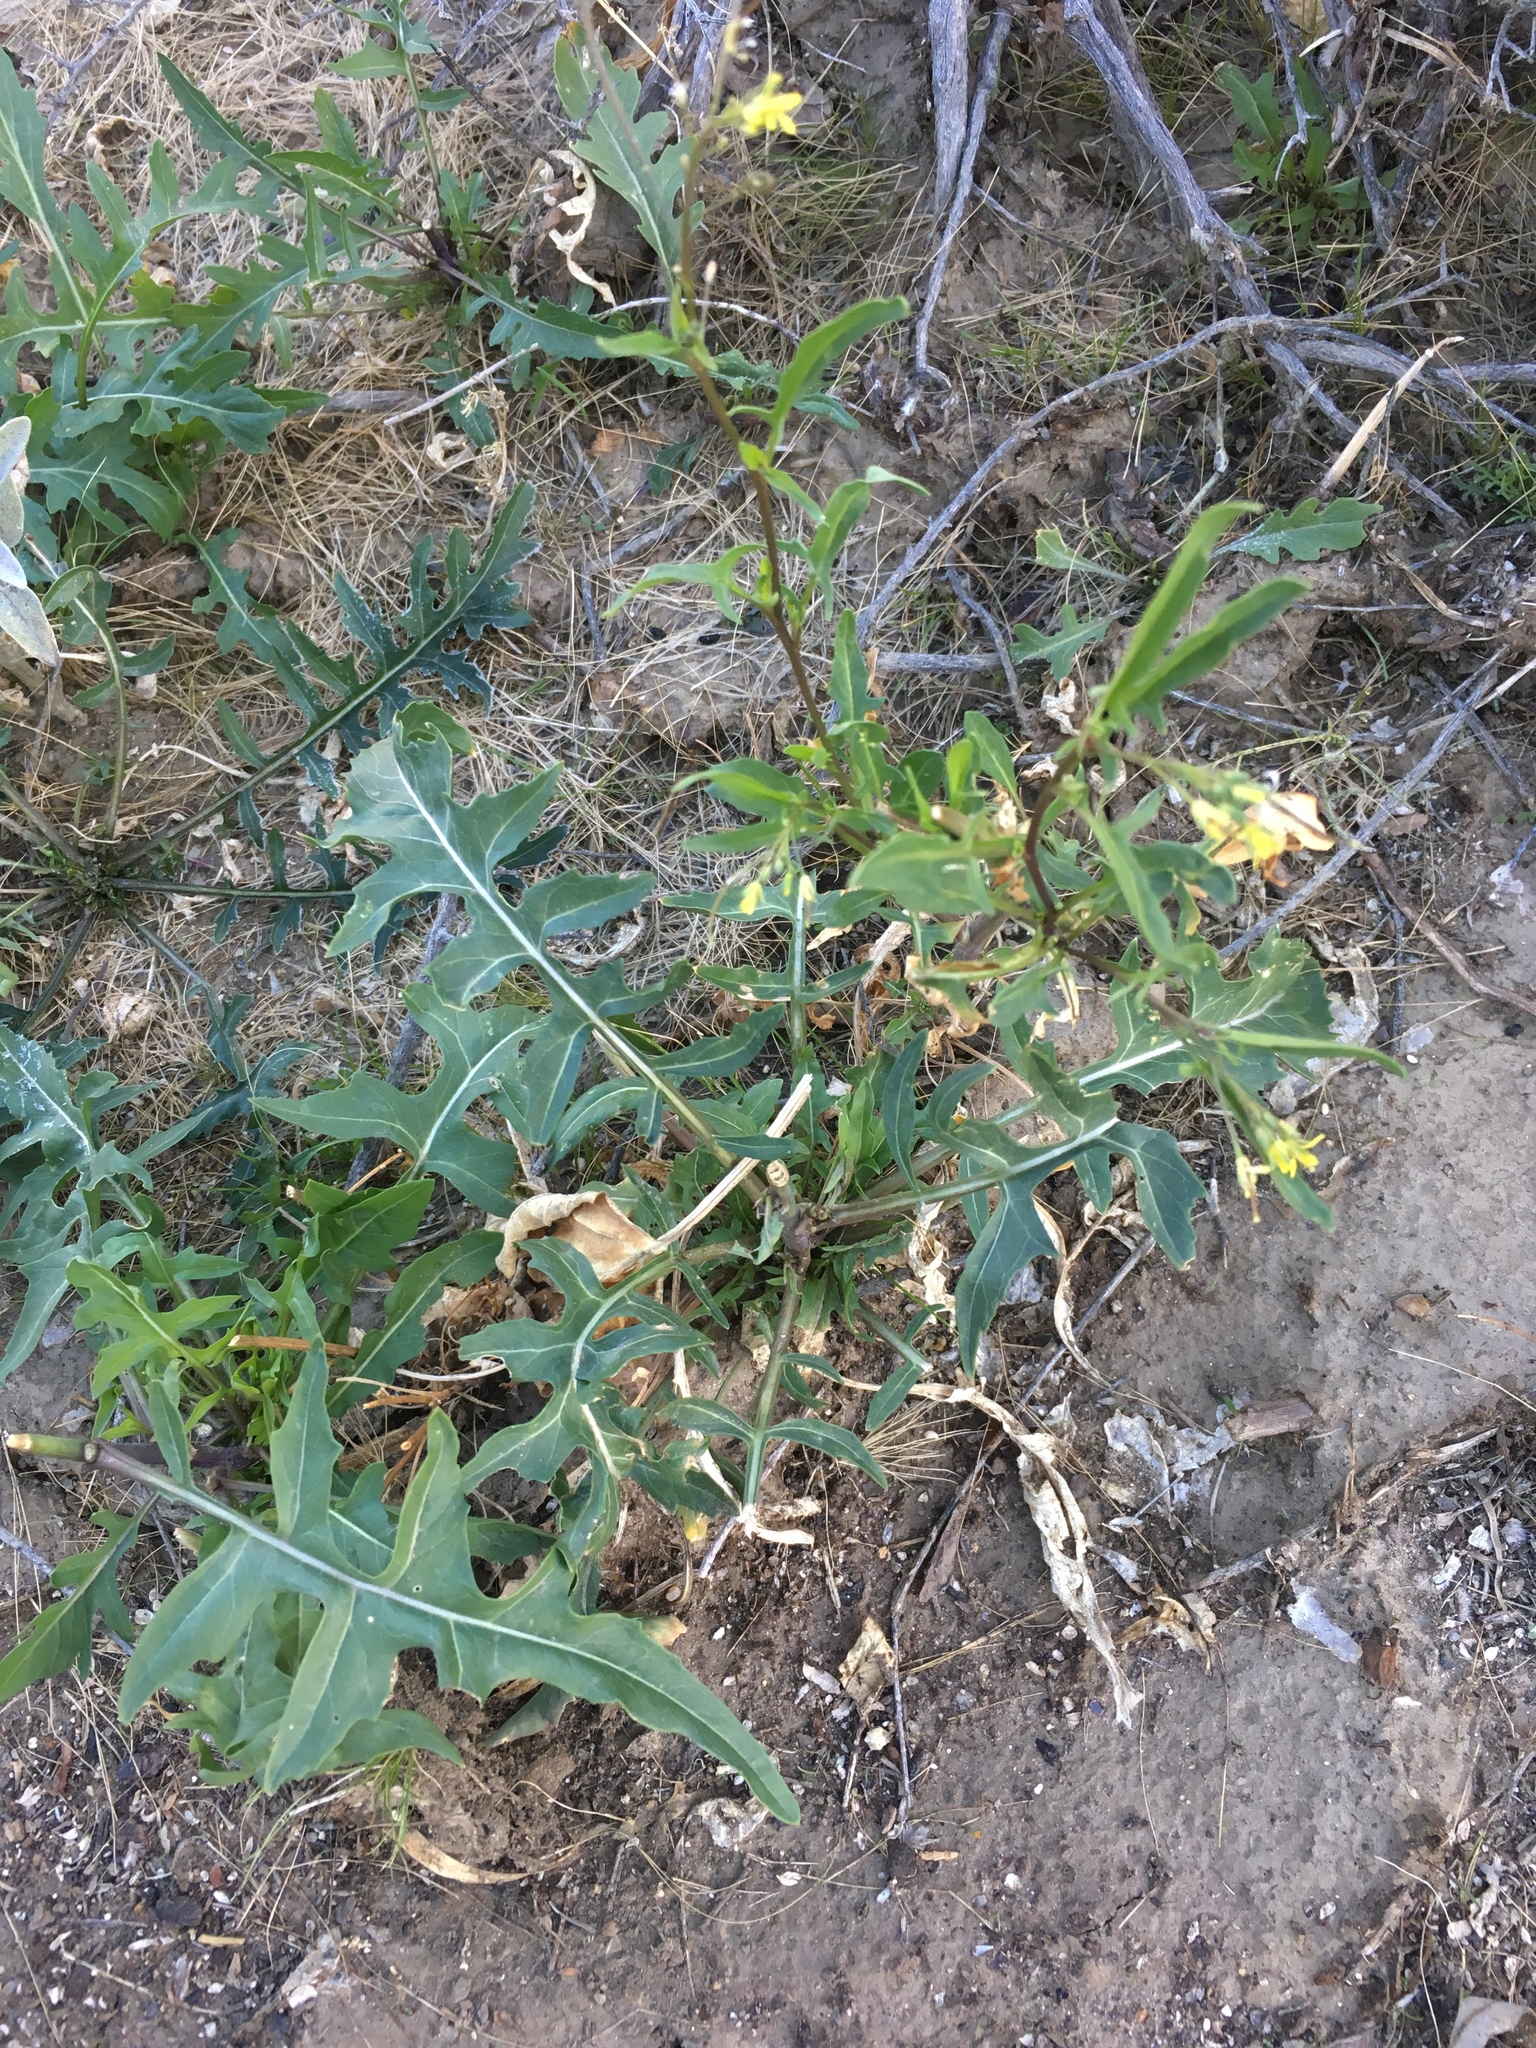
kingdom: Plantae
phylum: Tracheophyta
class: Magnoliopsida
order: Brassicales
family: Brassicaceae
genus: Sisymbrium
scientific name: Sisymbrium irio
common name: London rocket
